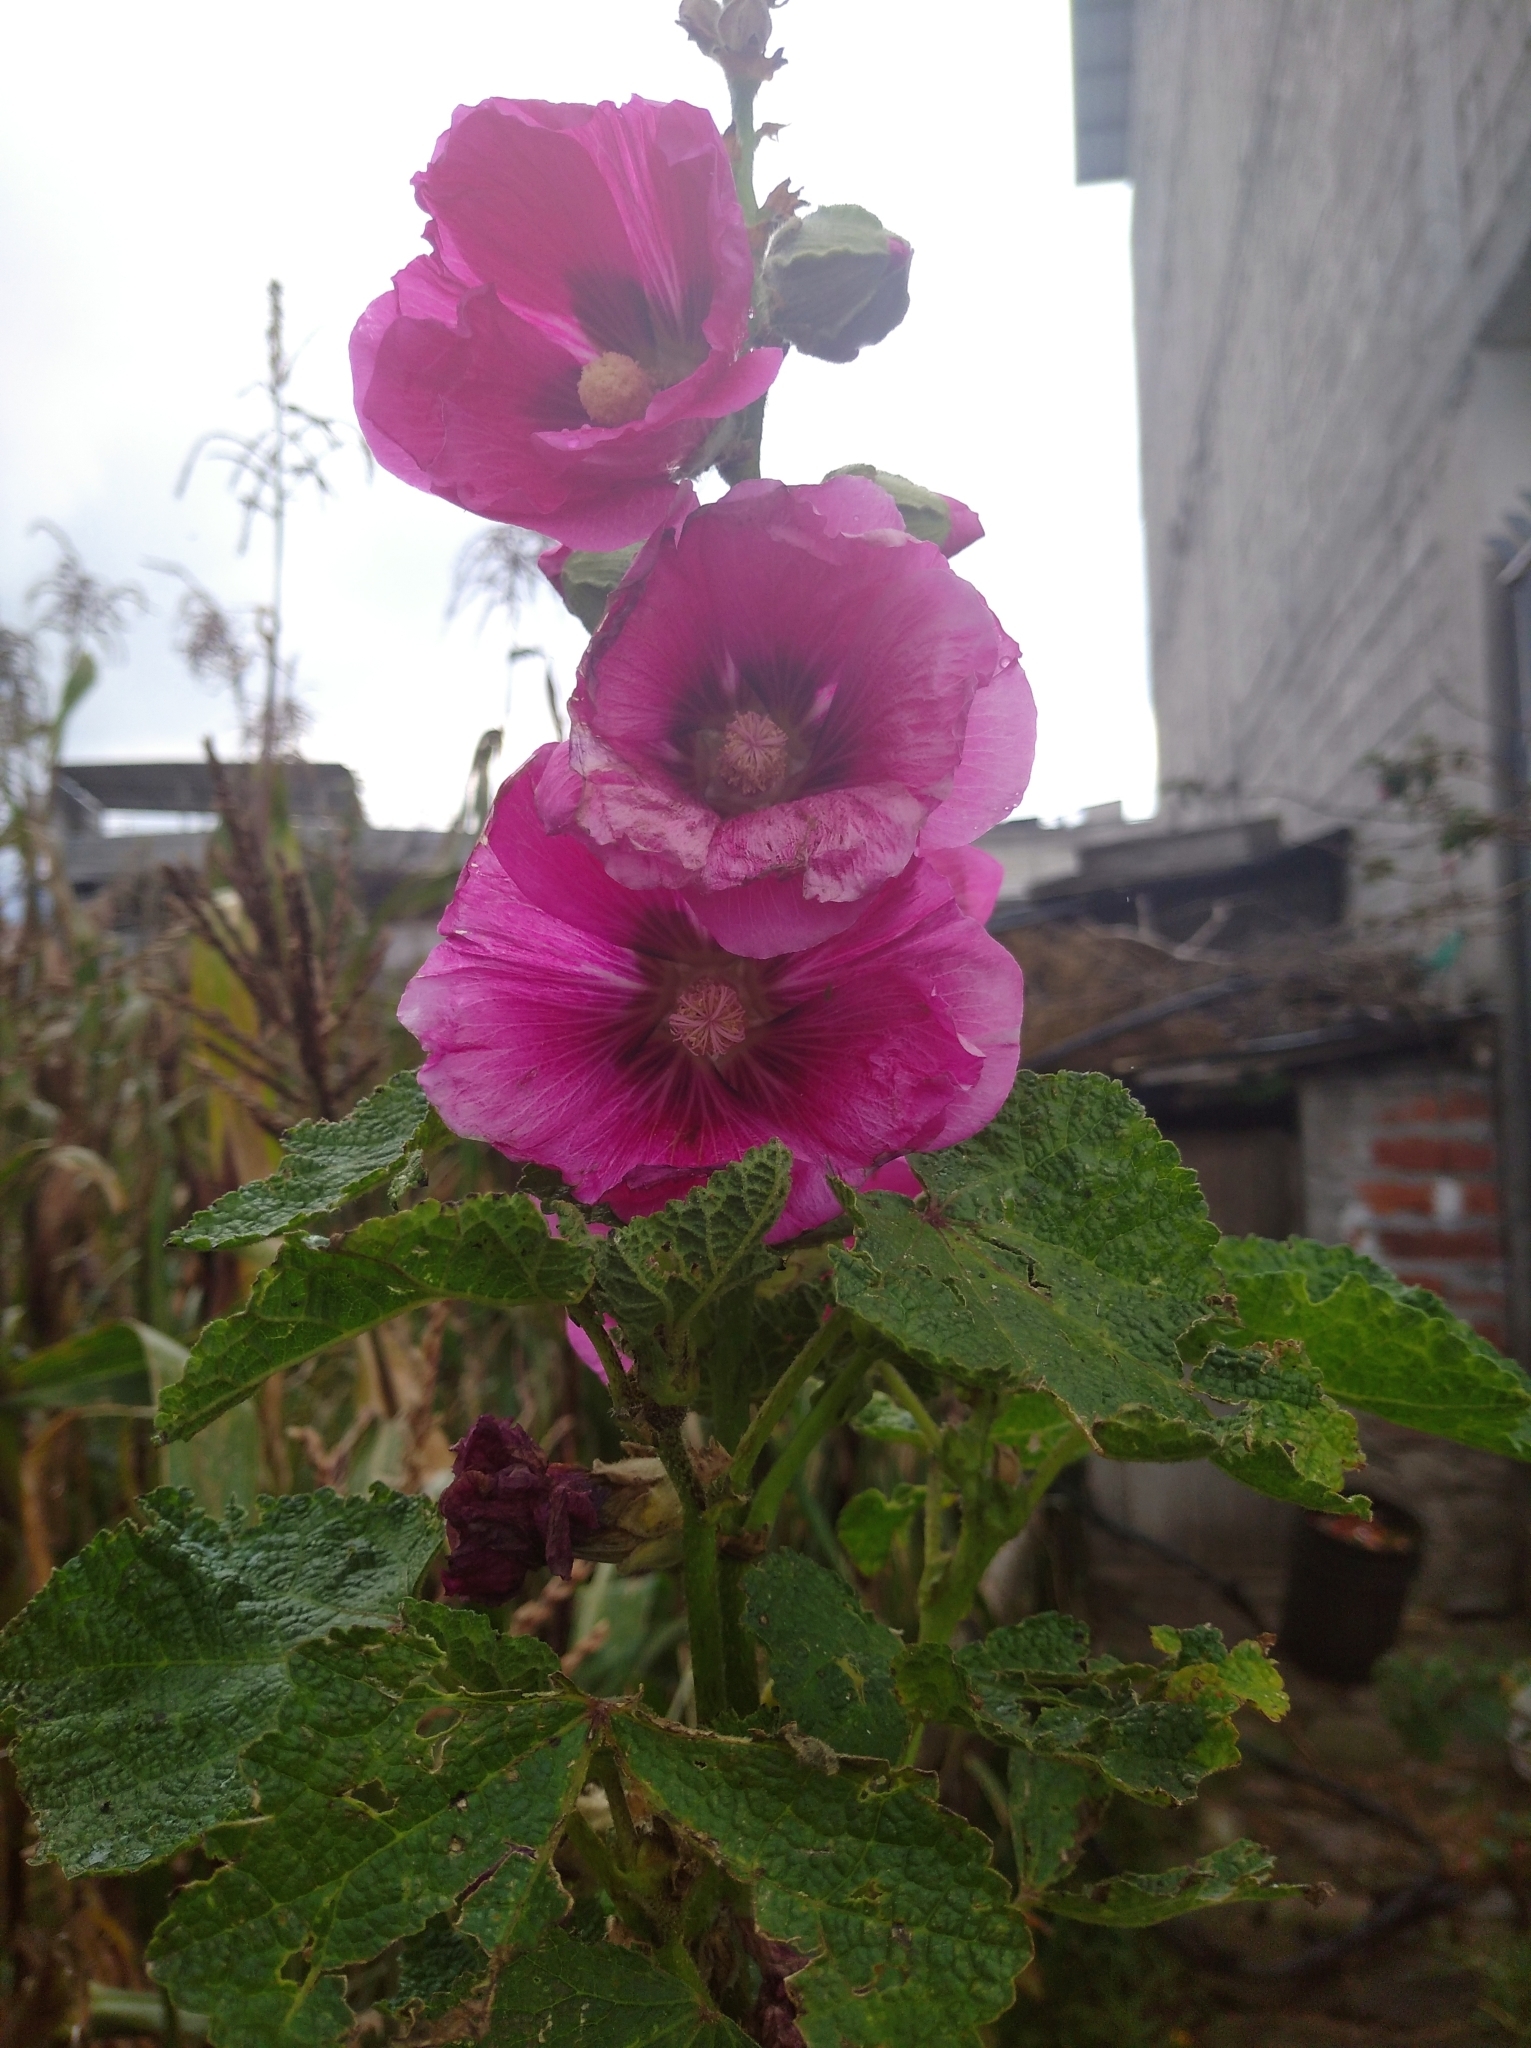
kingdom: Plantae
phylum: Tracheophyta
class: Magnoliopsida
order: Malvales
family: Malvaceae
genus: Alcea
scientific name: Alcea rosea
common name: Hollyhock
